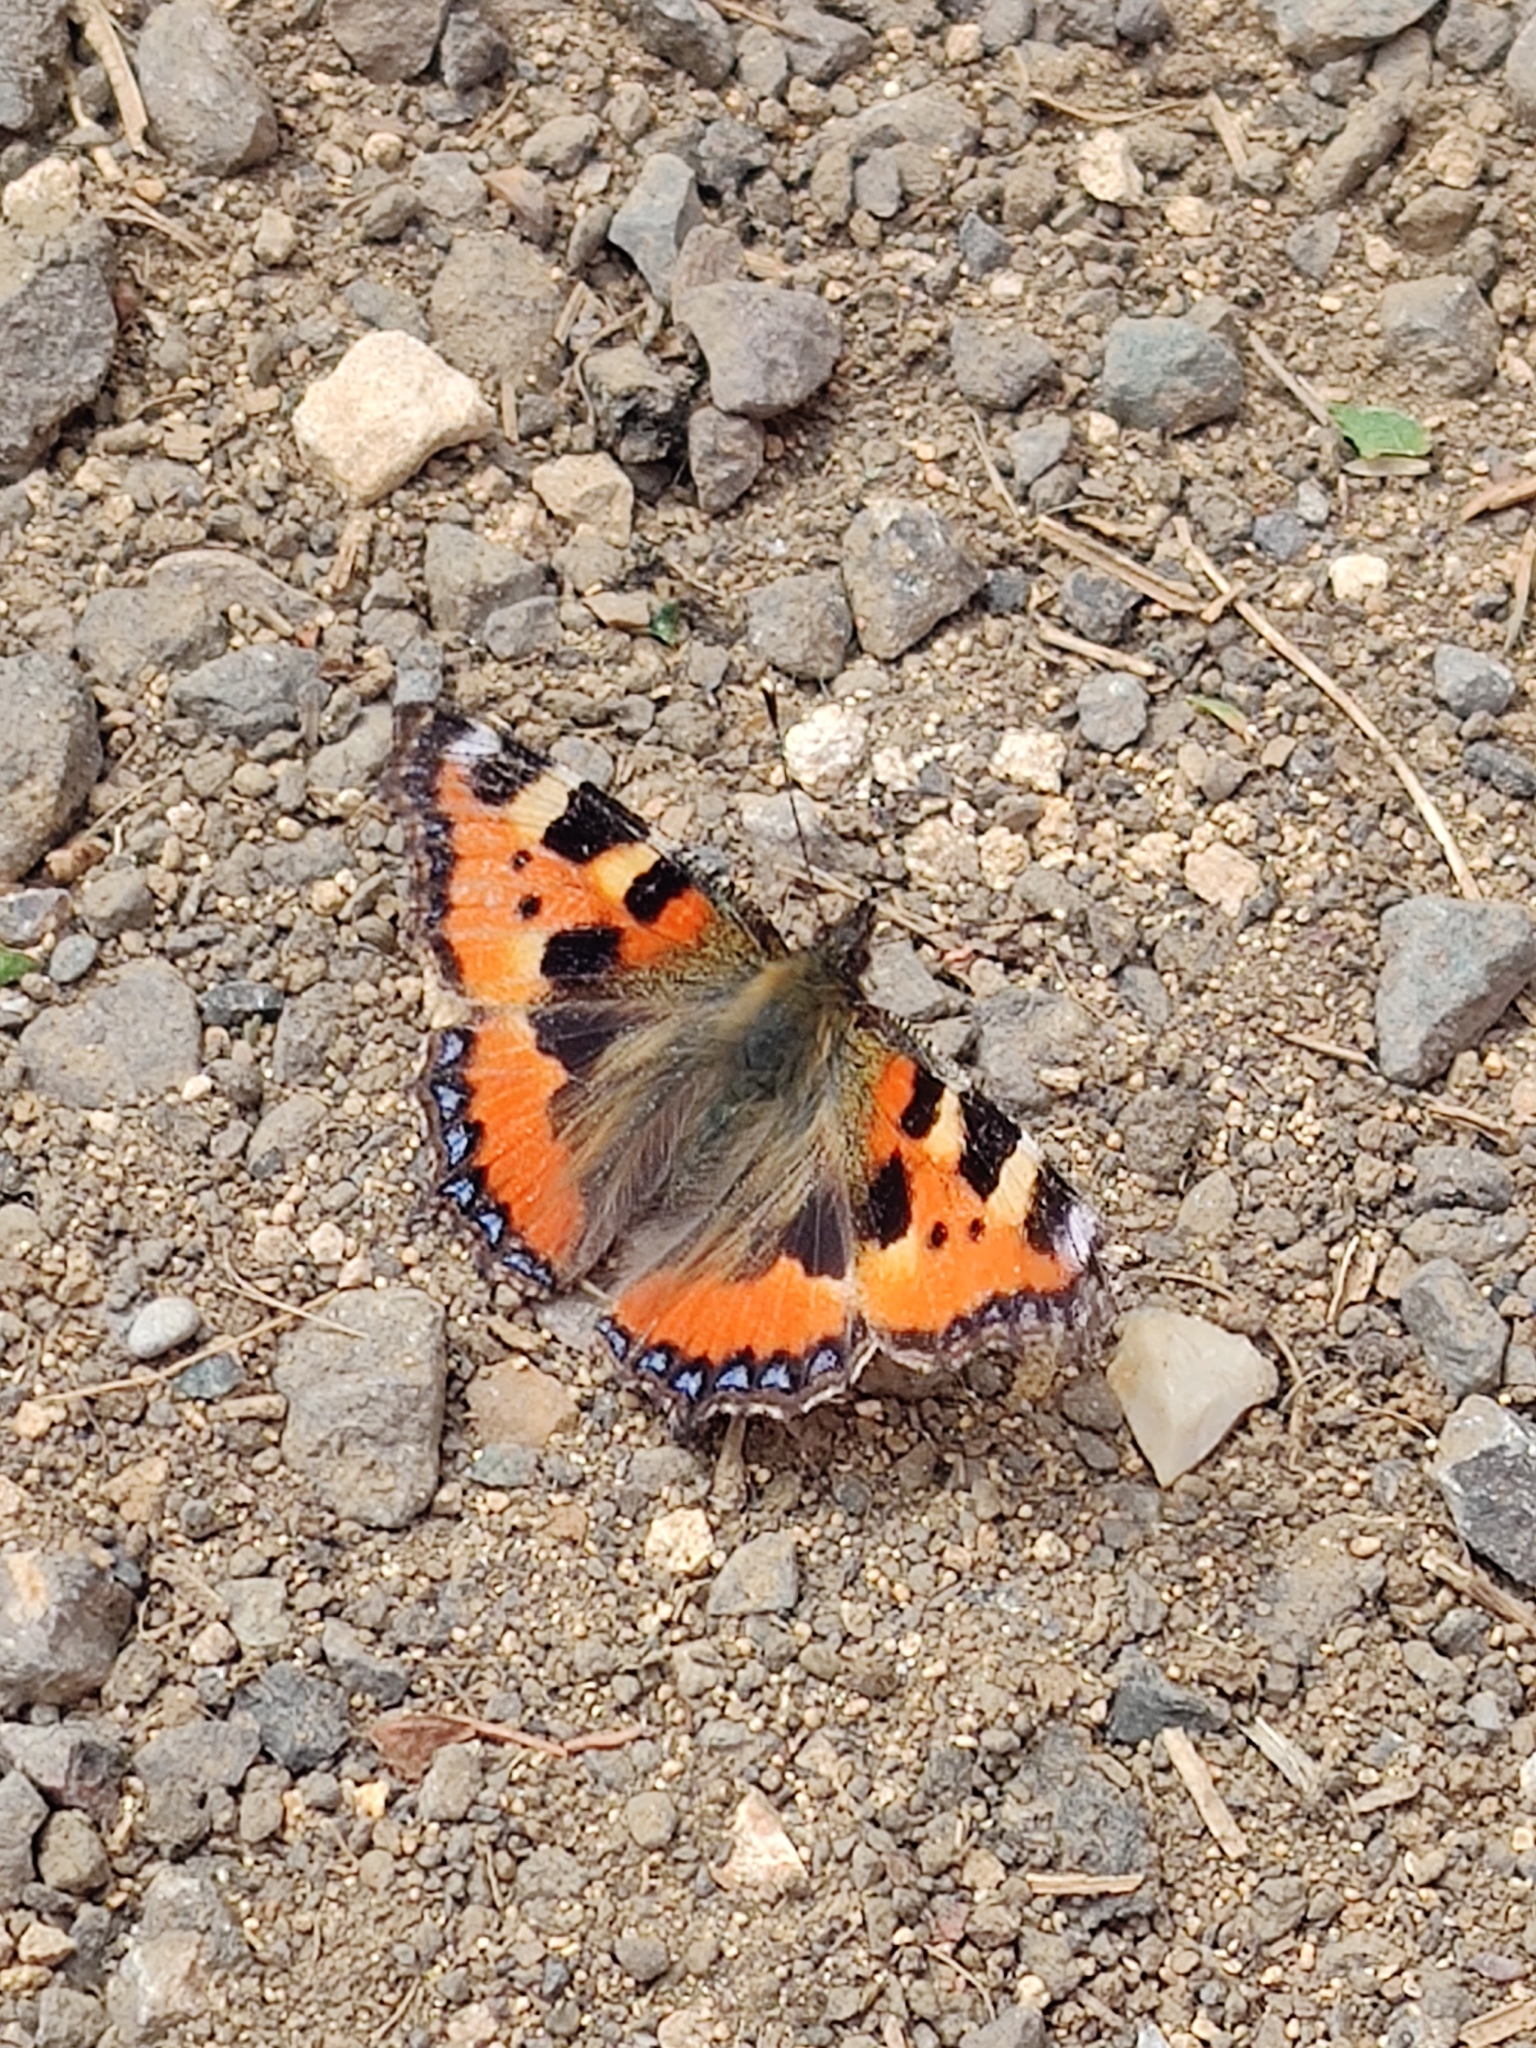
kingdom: Animalia
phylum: Arthropoda
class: Insecta
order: Lepidoptera
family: Nymphalidae
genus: Aglais
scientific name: Aglais urticae
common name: Small tortoiseshell
